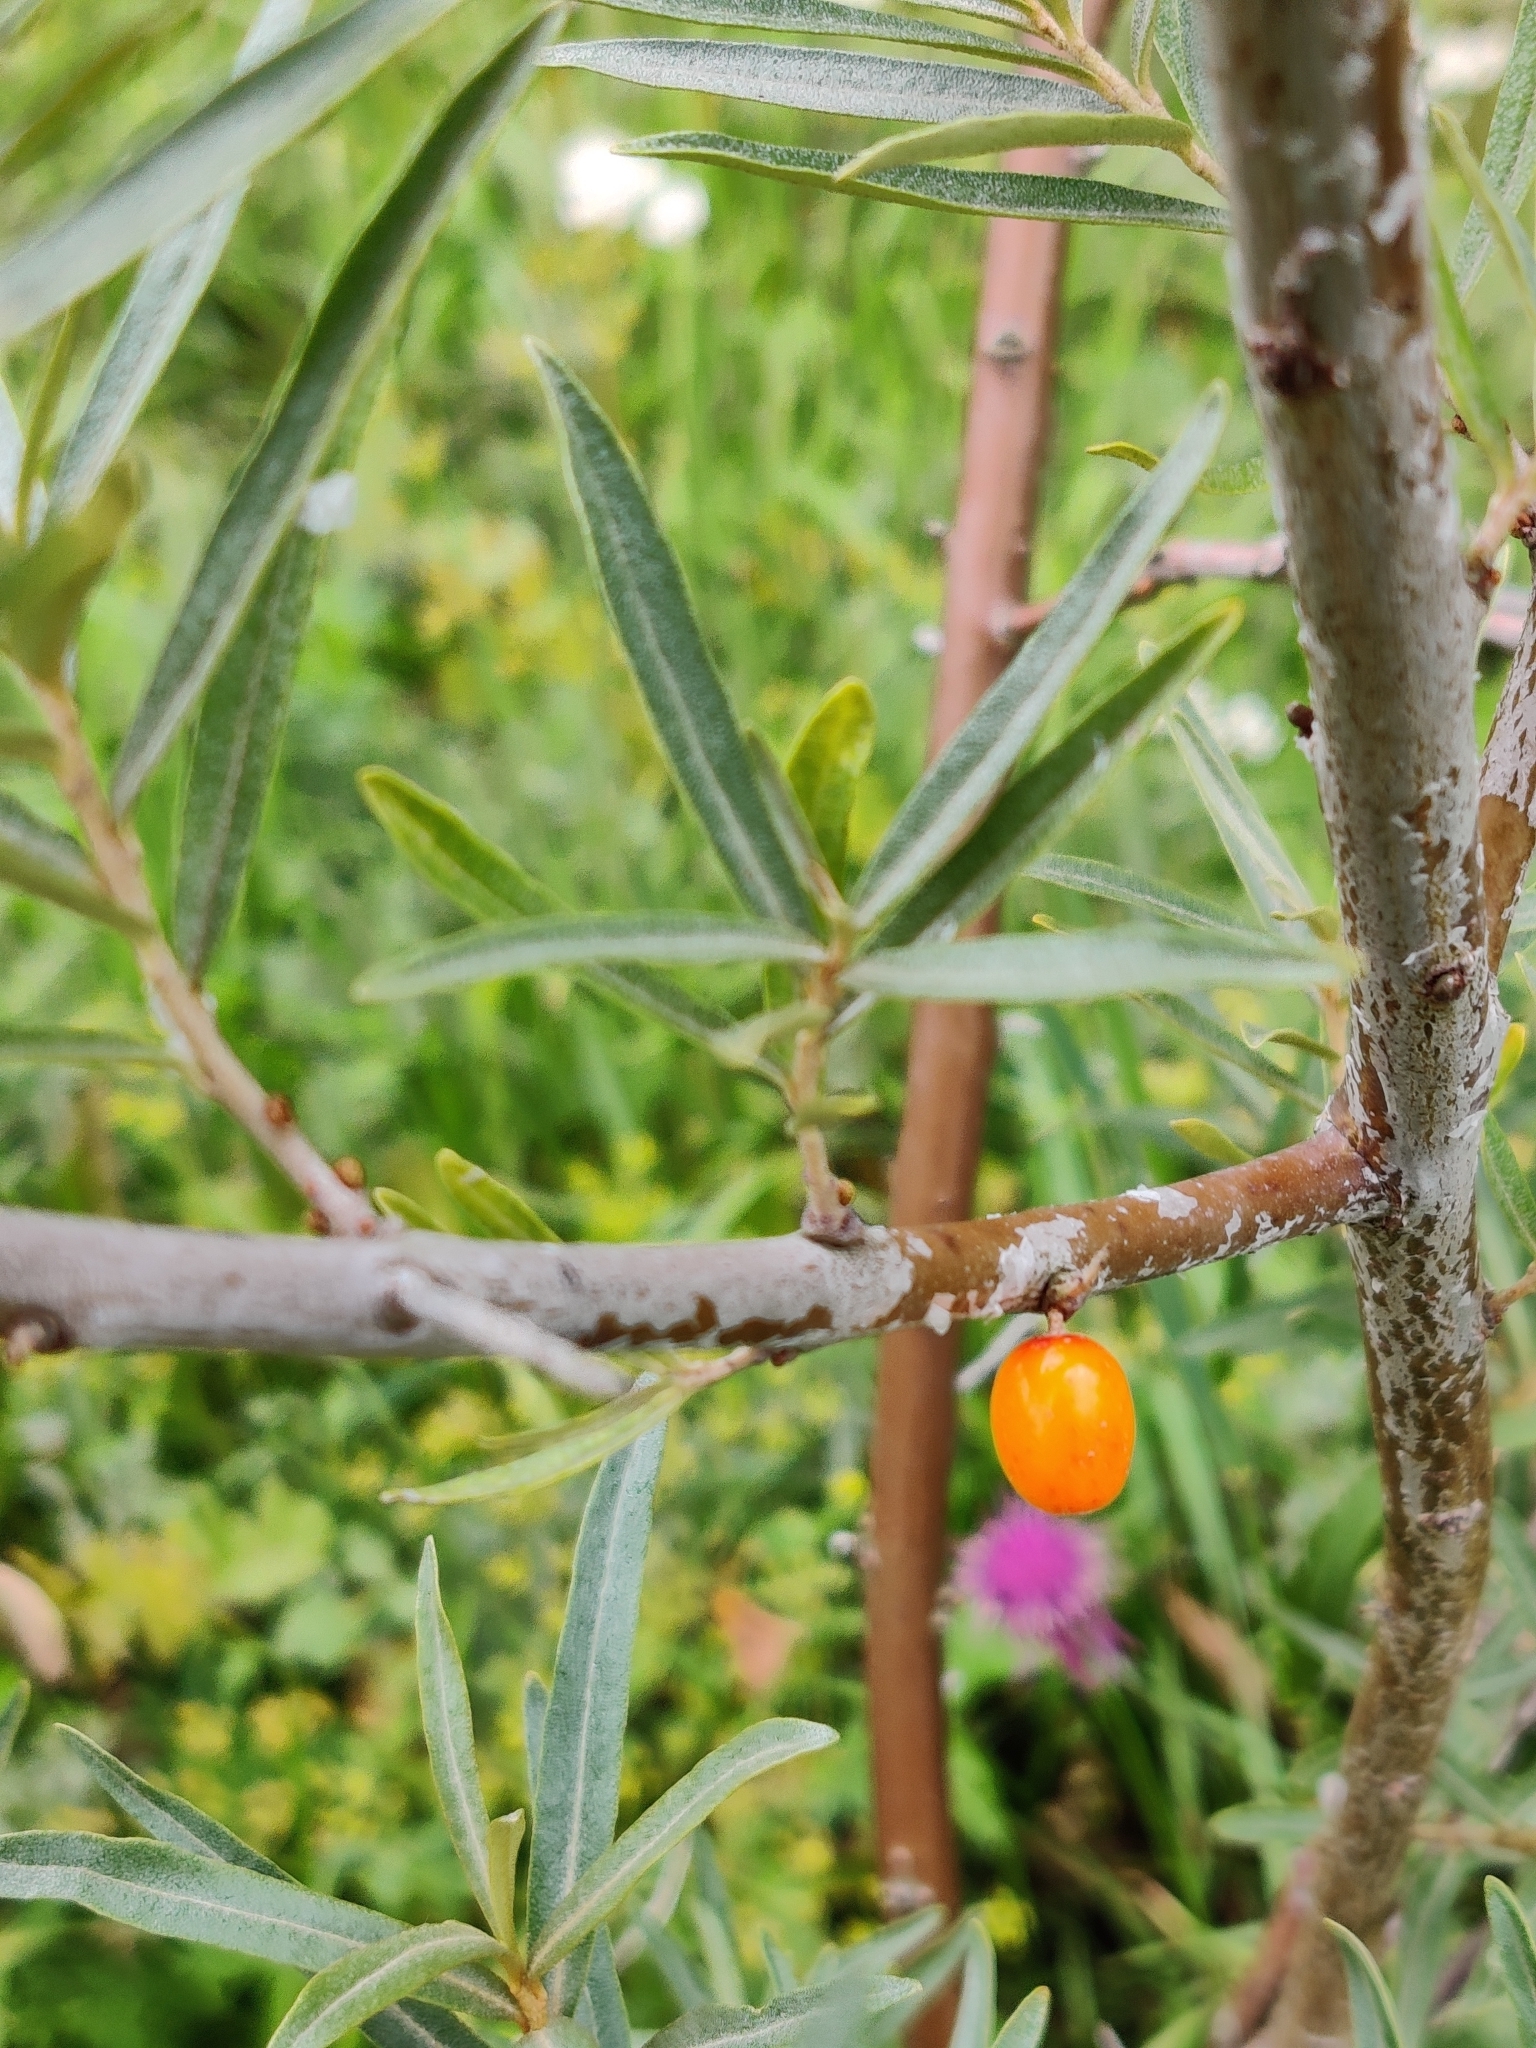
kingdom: Plantae
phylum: Tracheophyta
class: Magnoliopsida
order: Rosales
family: Elaeagnaceae
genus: Hippophae
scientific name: Hippophae rhamnoides
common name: Sea-buckthorn
